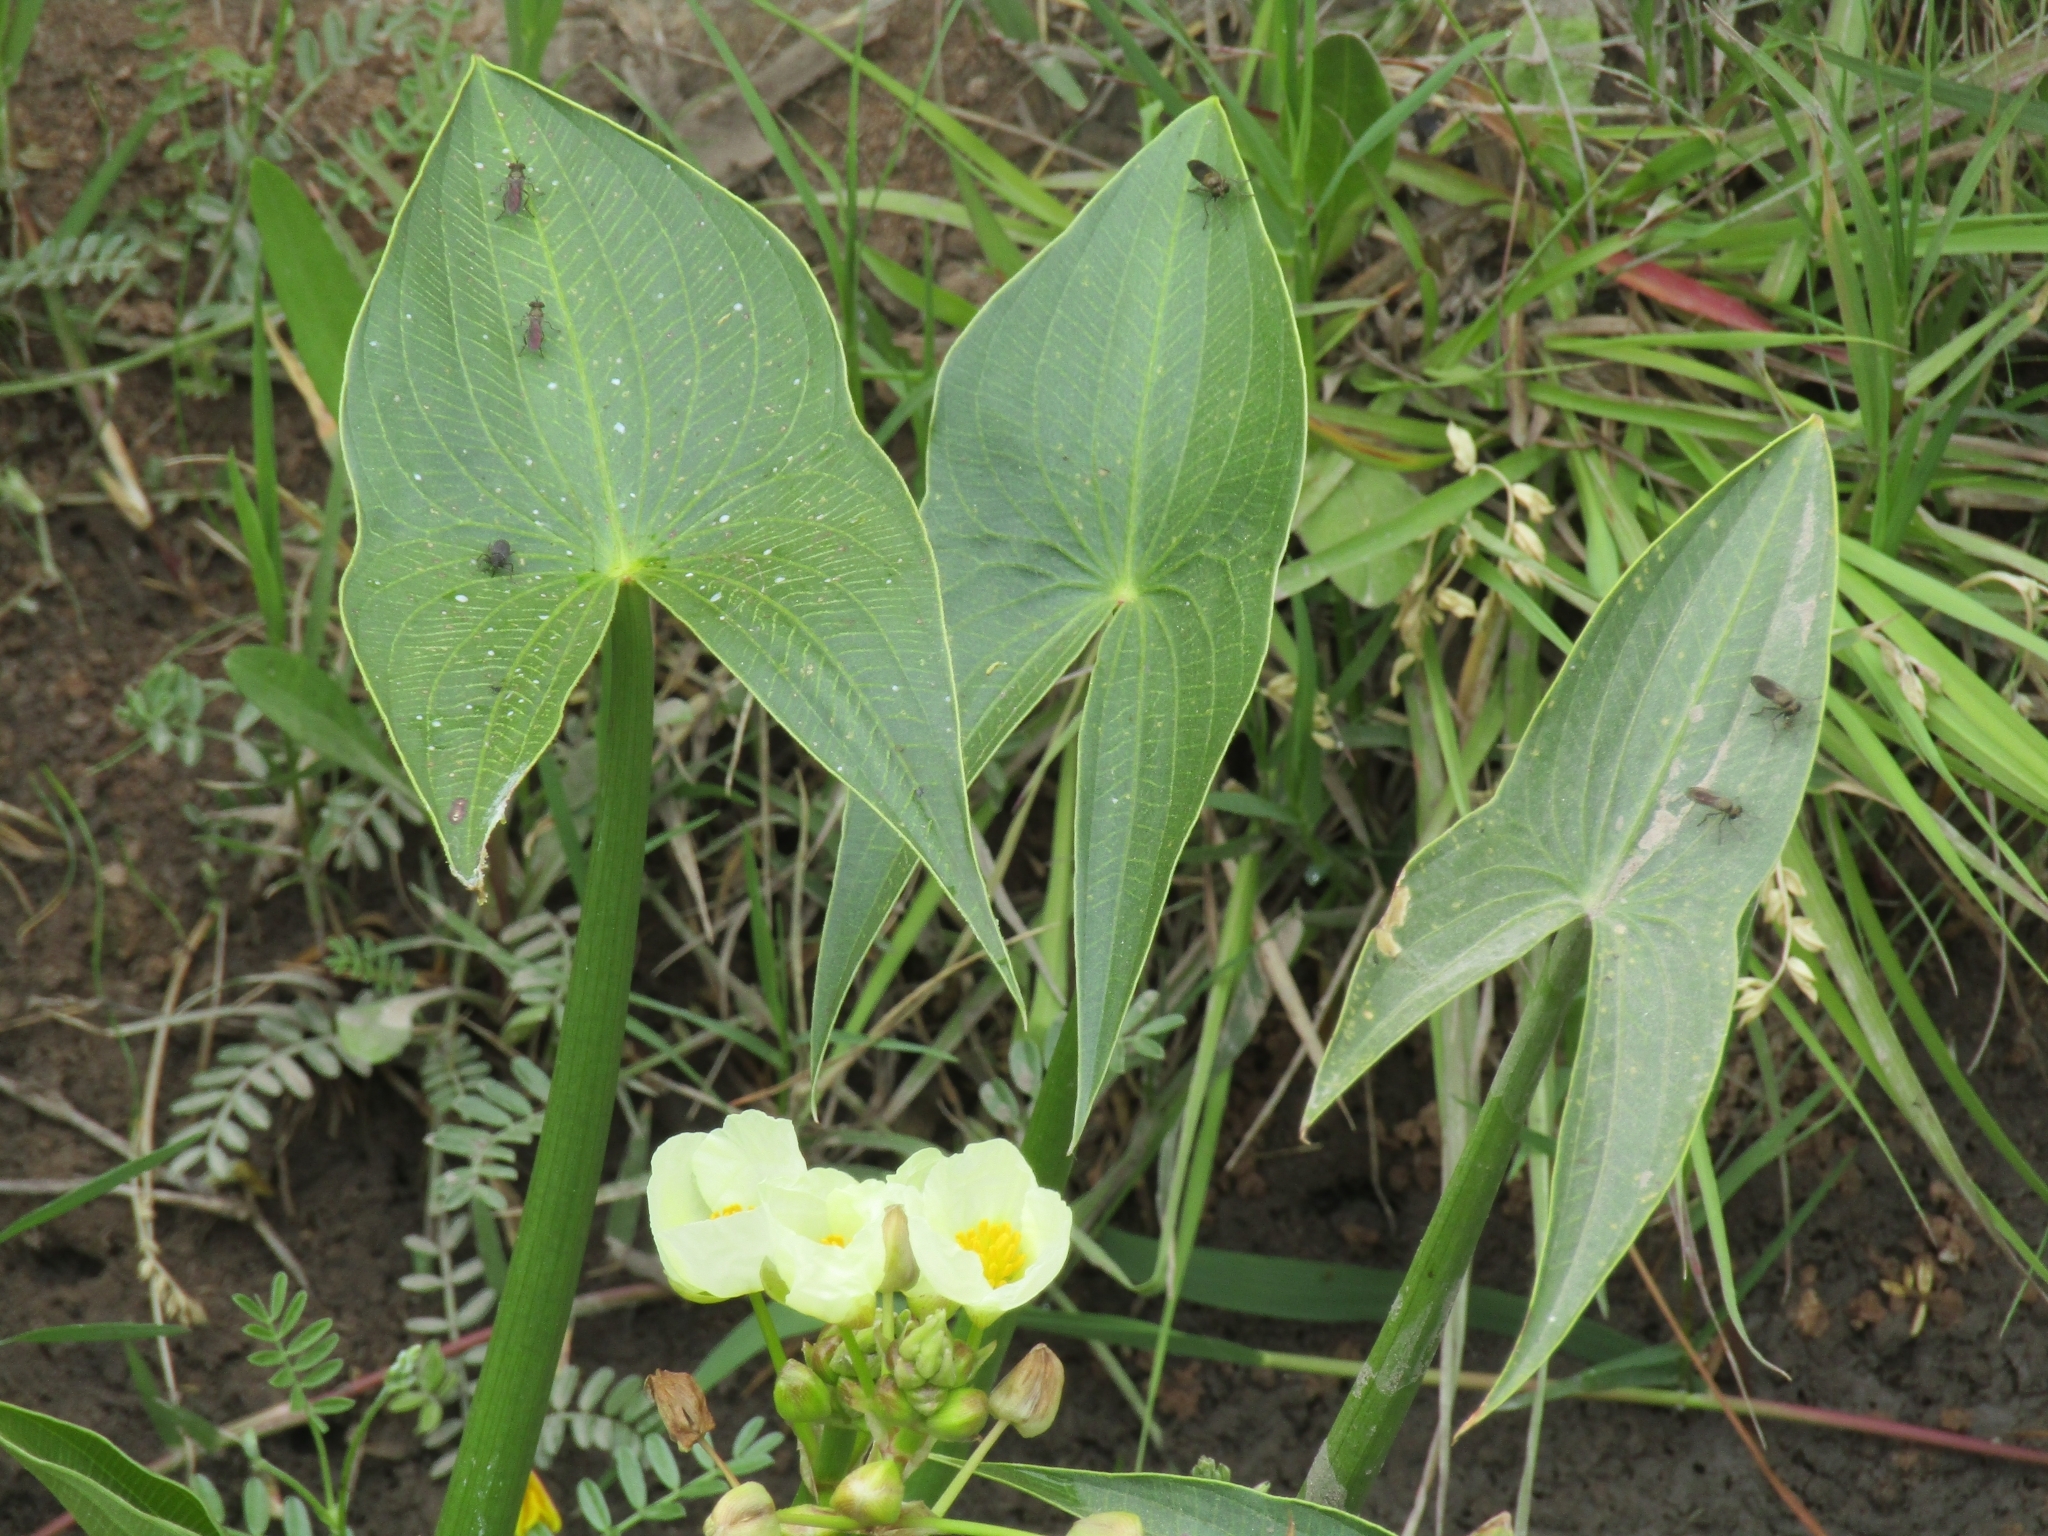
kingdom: Plantae
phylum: Tracheophyta
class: Liliopsida
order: Alismatales
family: Alismataceae
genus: Sagittaria
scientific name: Sagittaria montevidensis
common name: Giant arrowhead
